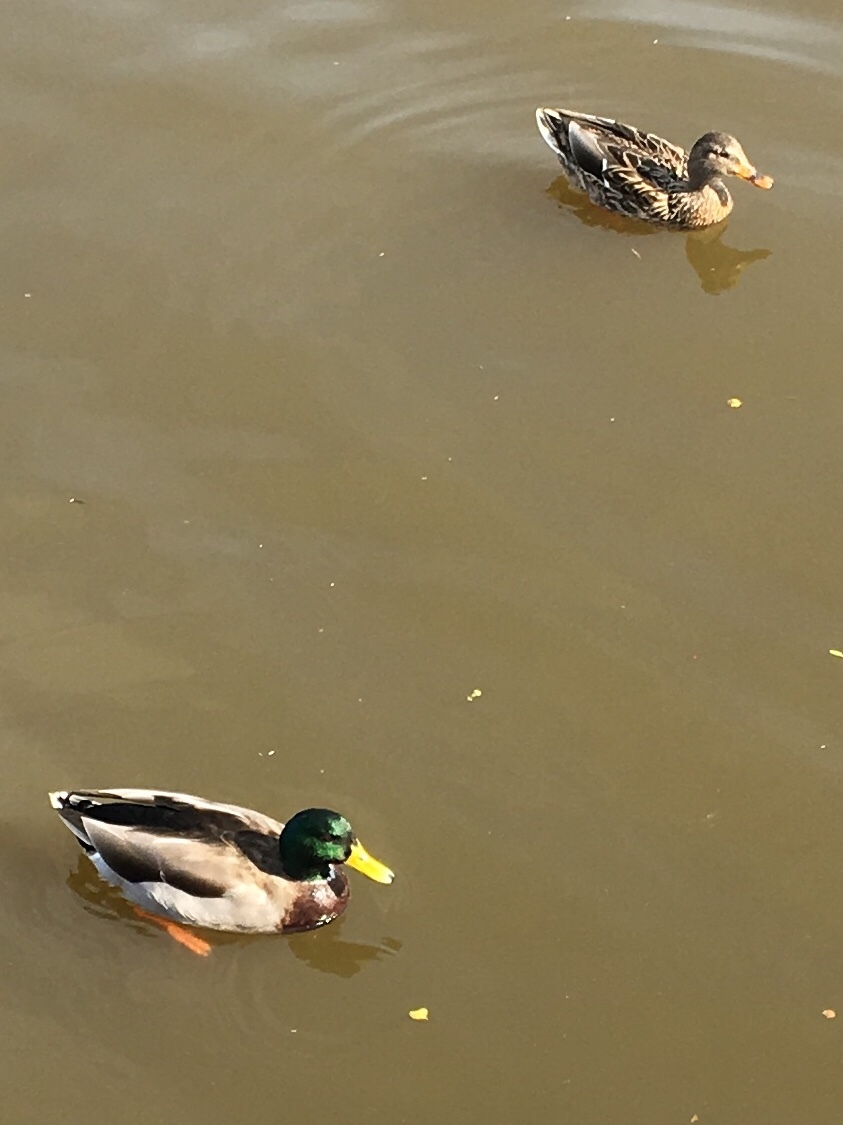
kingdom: Animalia
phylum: Chordata
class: Aves
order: Anseriformes
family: Anatidae
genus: Anas
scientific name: Anas platyrhynchos
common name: Mallard
